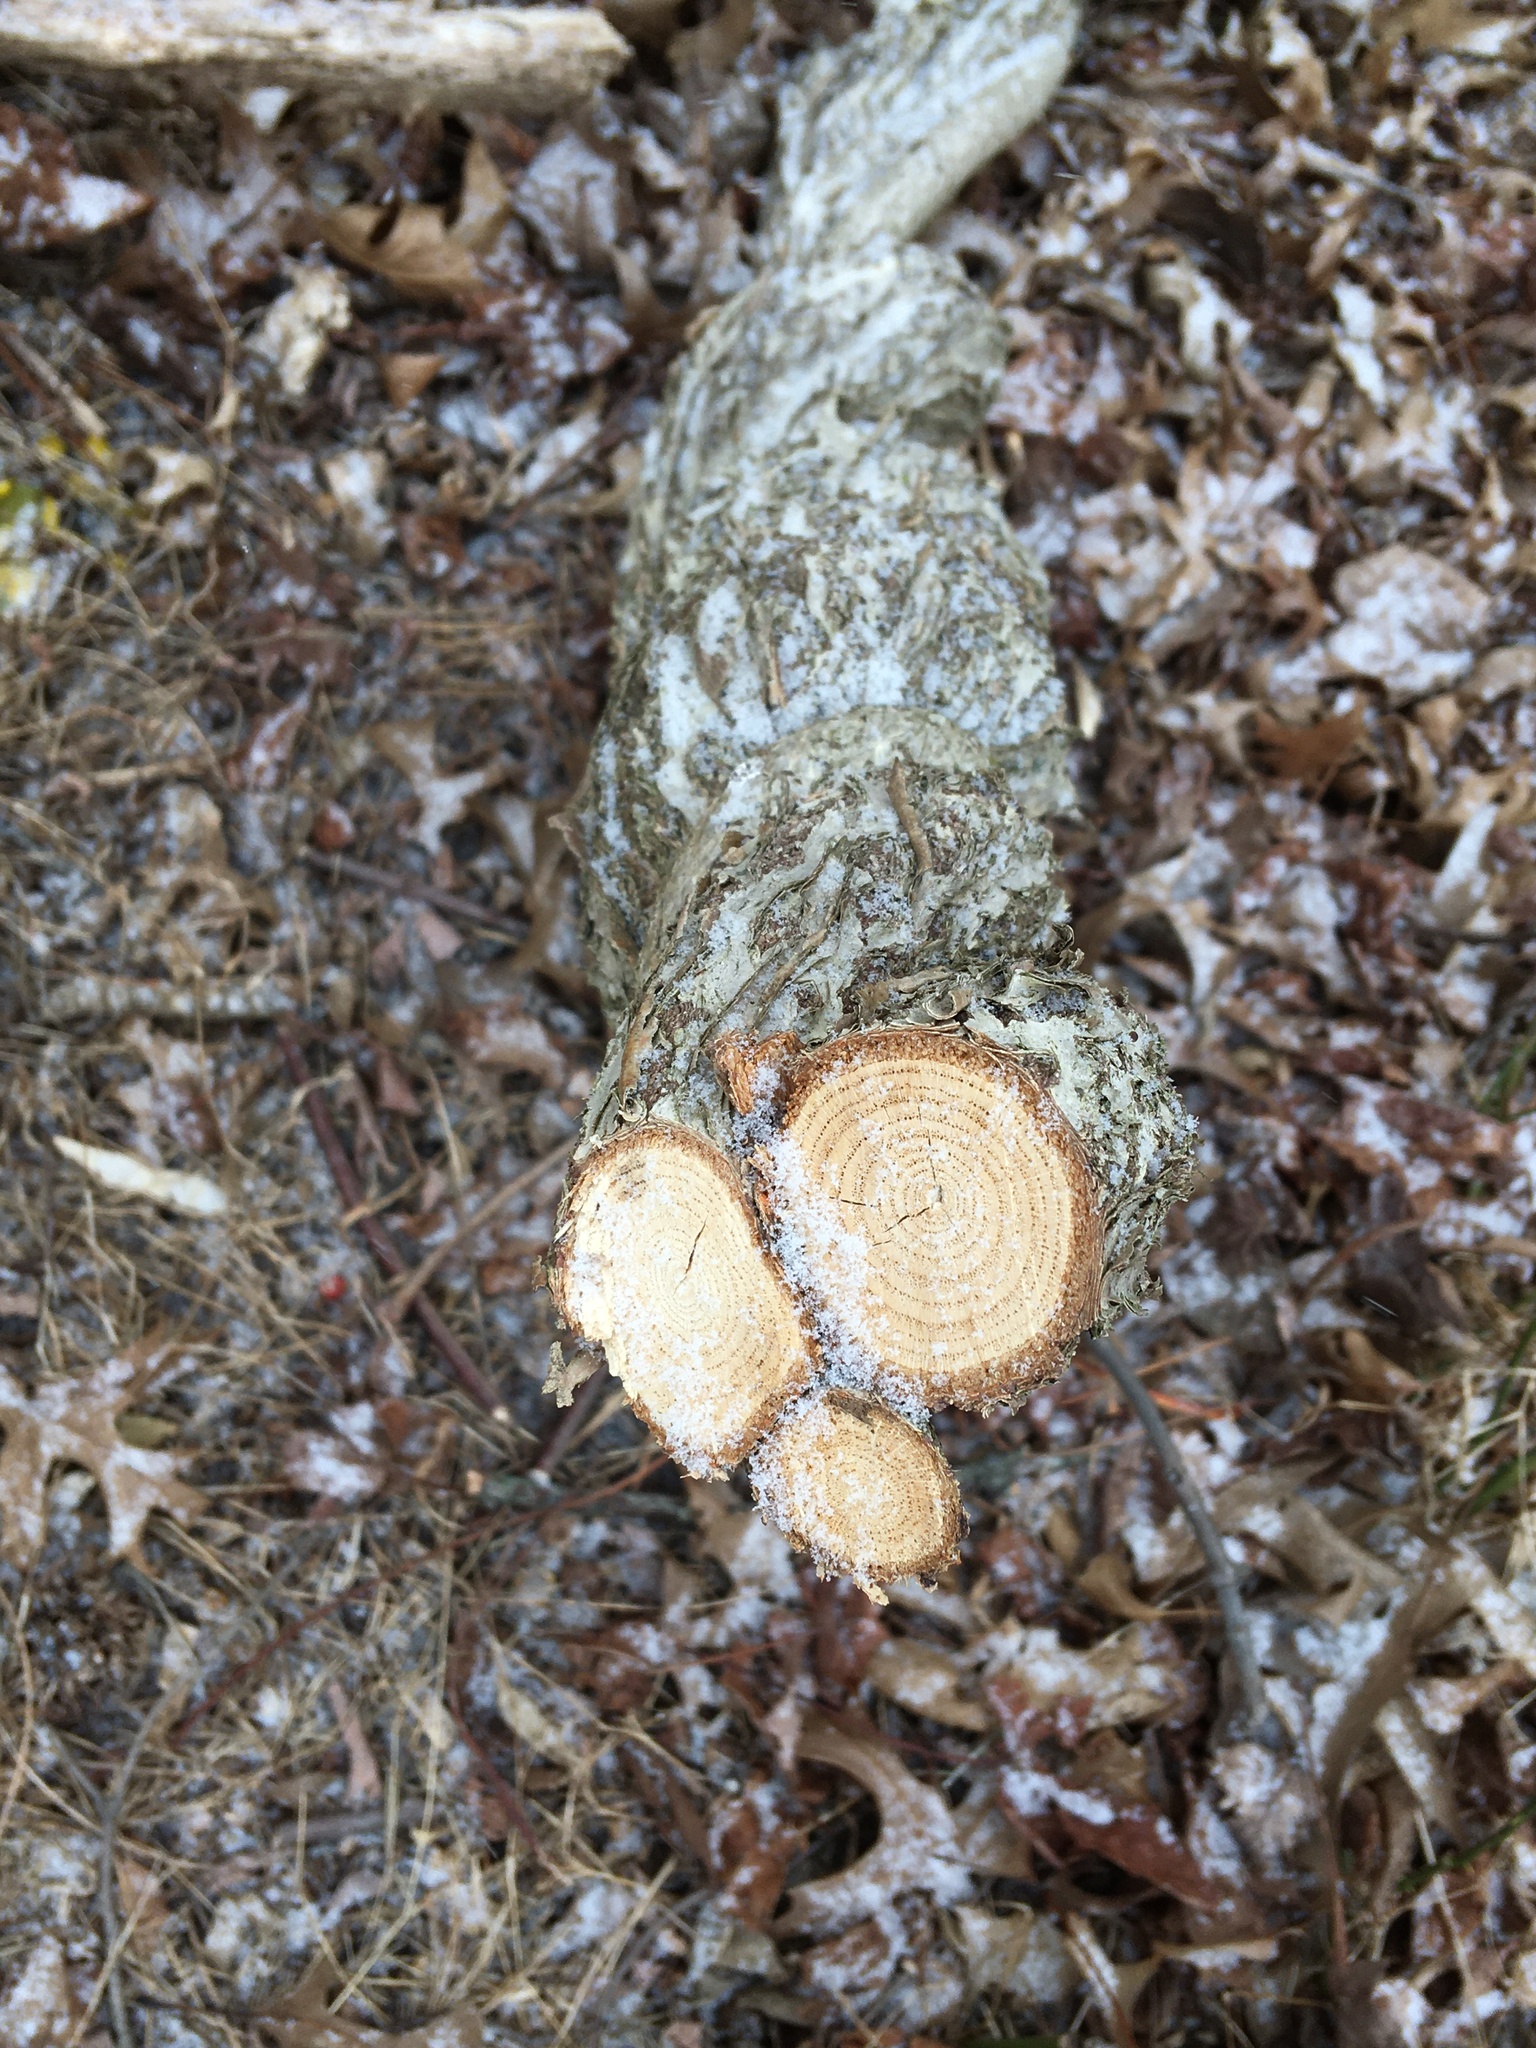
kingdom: Plantae
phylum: Tracheophyta
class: Magnoliopsida
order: Celastrales
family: Celastraceae
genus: Celastrus
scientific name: Celastrus orbiculatus
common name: Oriental bittersweet
